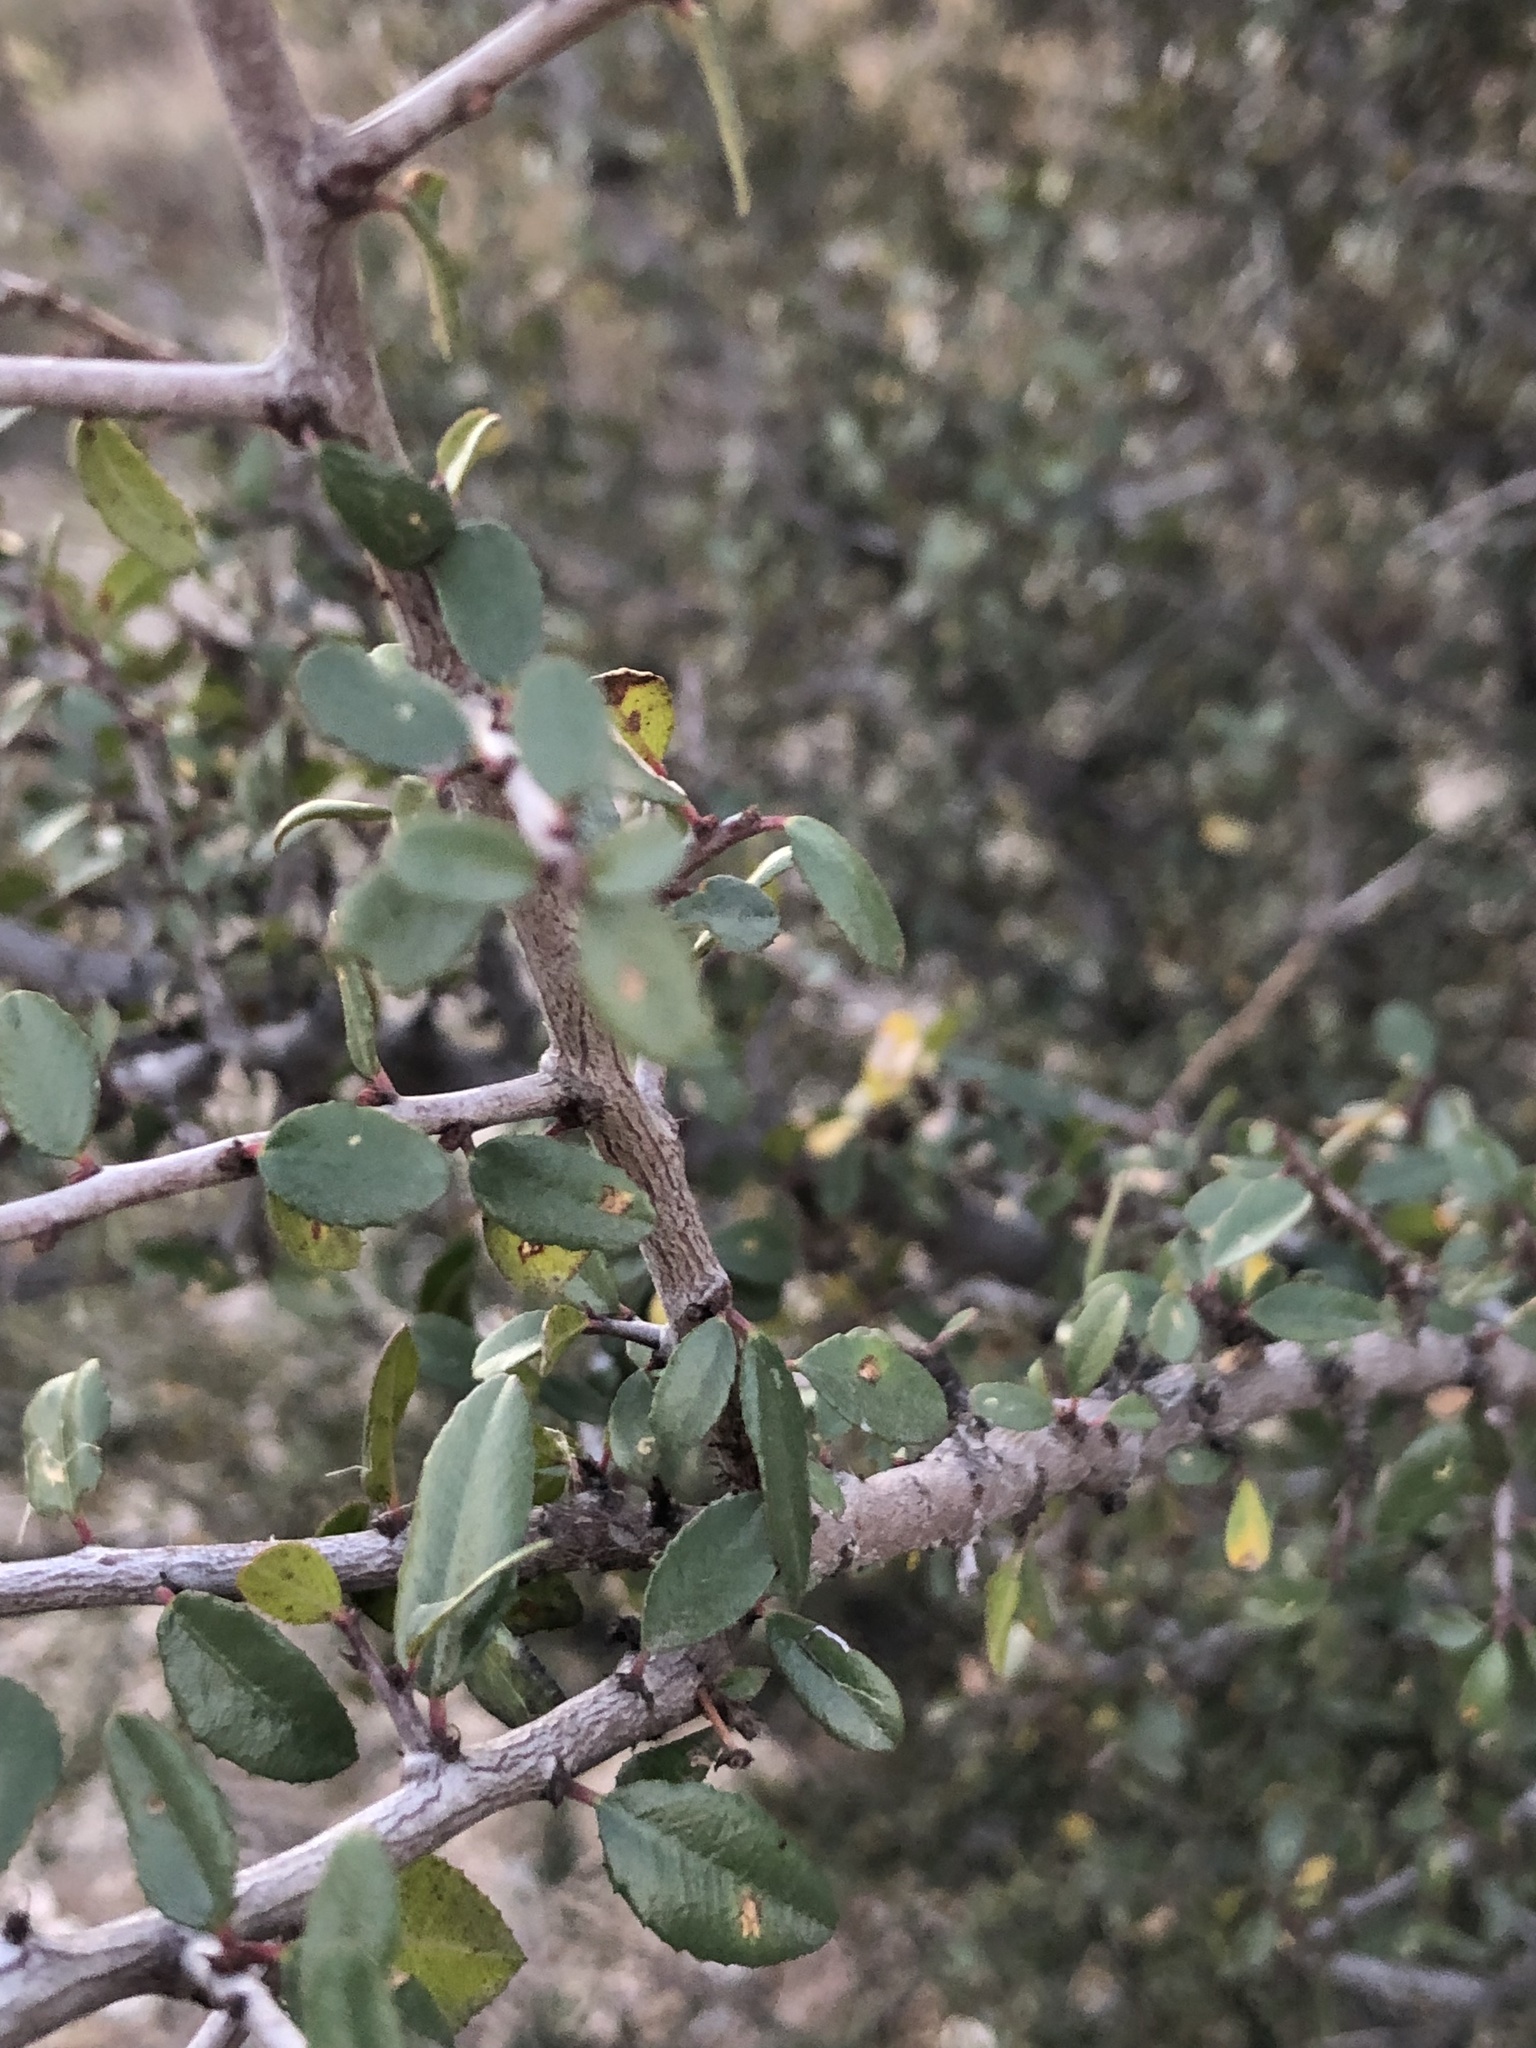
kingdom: Plantae
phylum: Tracheophyta
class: Magnoliopsida
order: Rosales
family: Rhamnaceae
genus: Endotropis
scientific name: Endotropis crocea
